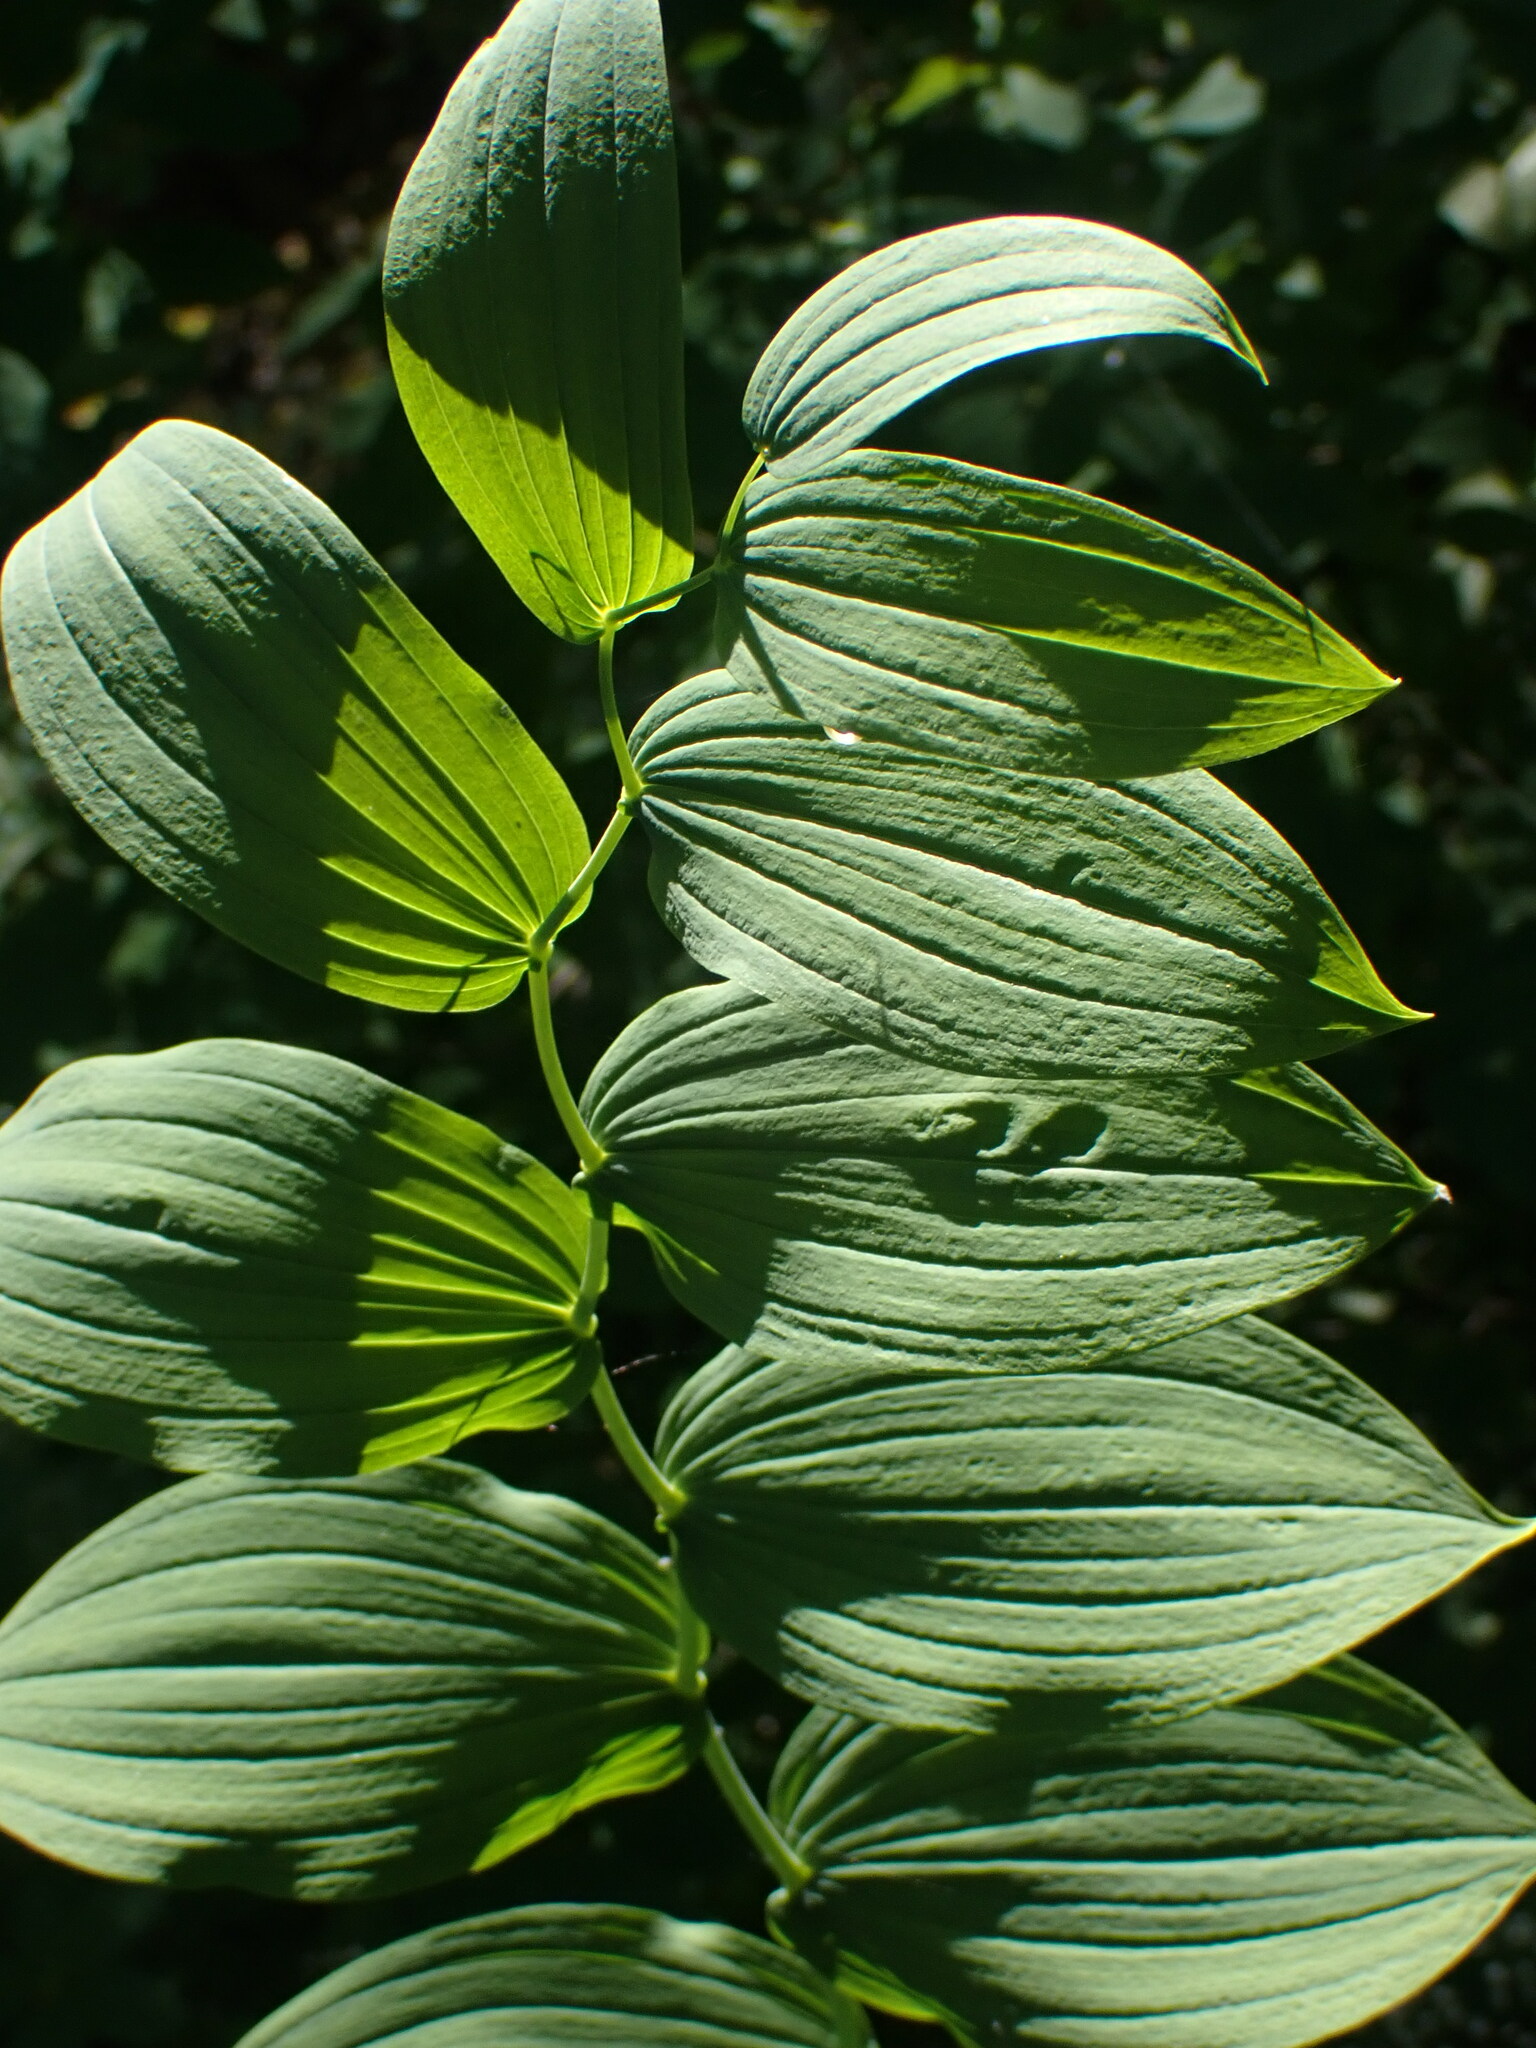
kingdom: Plantae
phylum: Tracheophyta
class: Liliopsida
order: Liliales
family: Liliaceae
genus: Streptopus
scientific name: Streptopus amplexifolius
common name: Clasp twisted stalk
